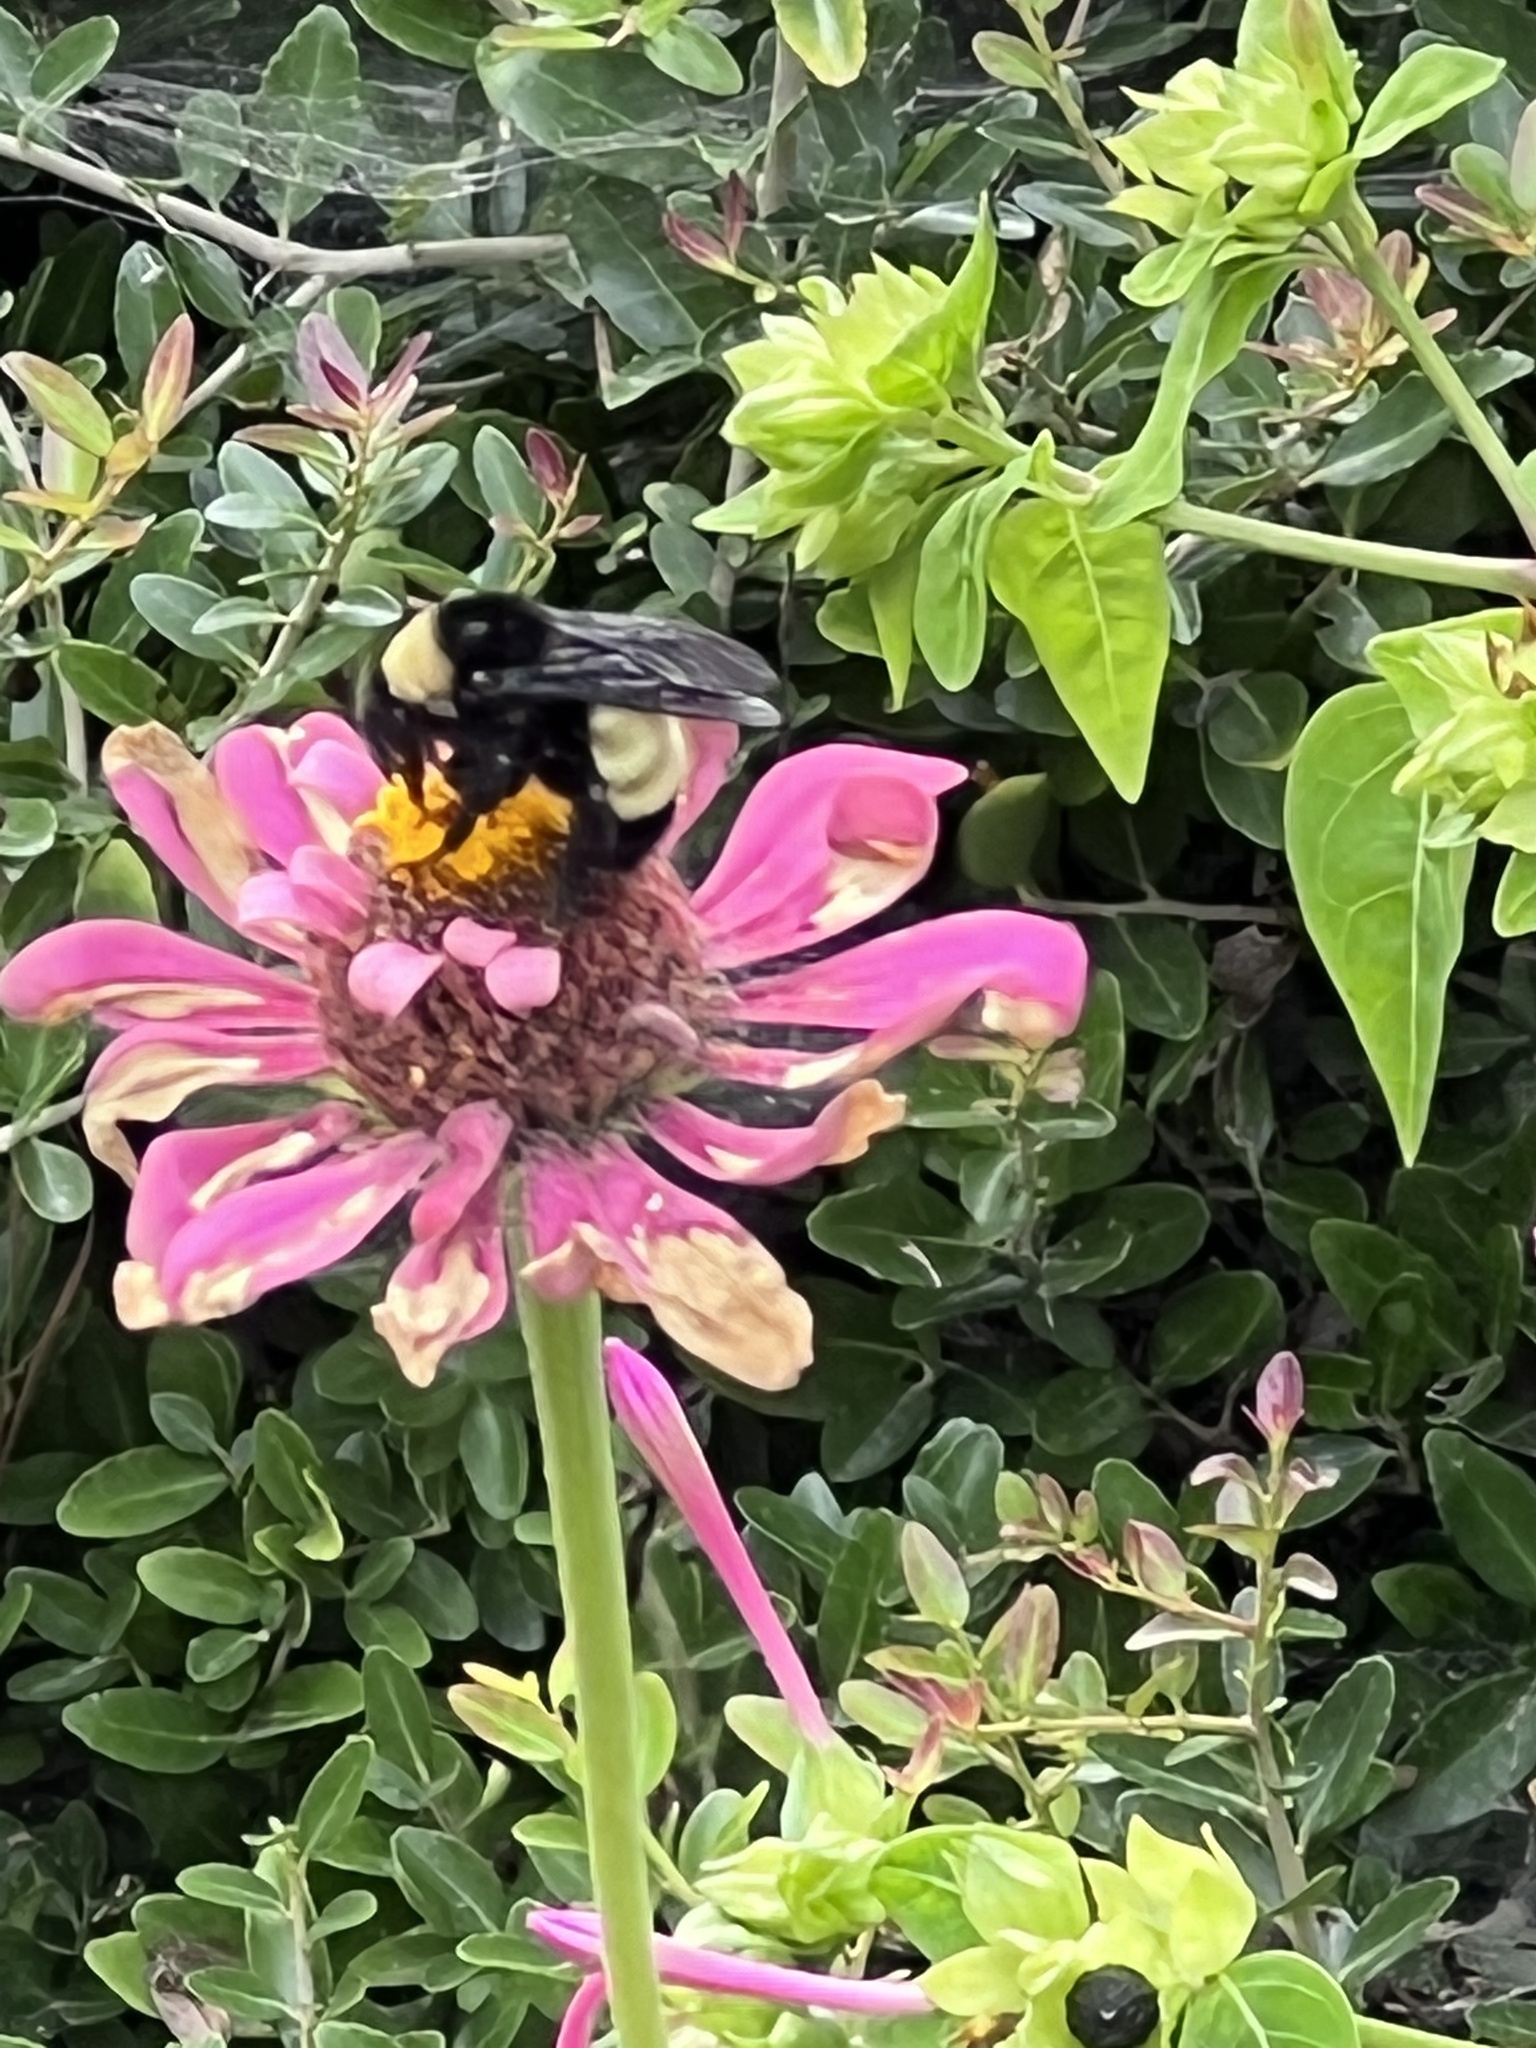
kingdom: Animalia
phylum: Arthropoda
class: Insecta
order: Hymenoptera
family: Apidae
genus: Bombus
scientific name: Bombus pensylvanicus
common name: Bumble bee
